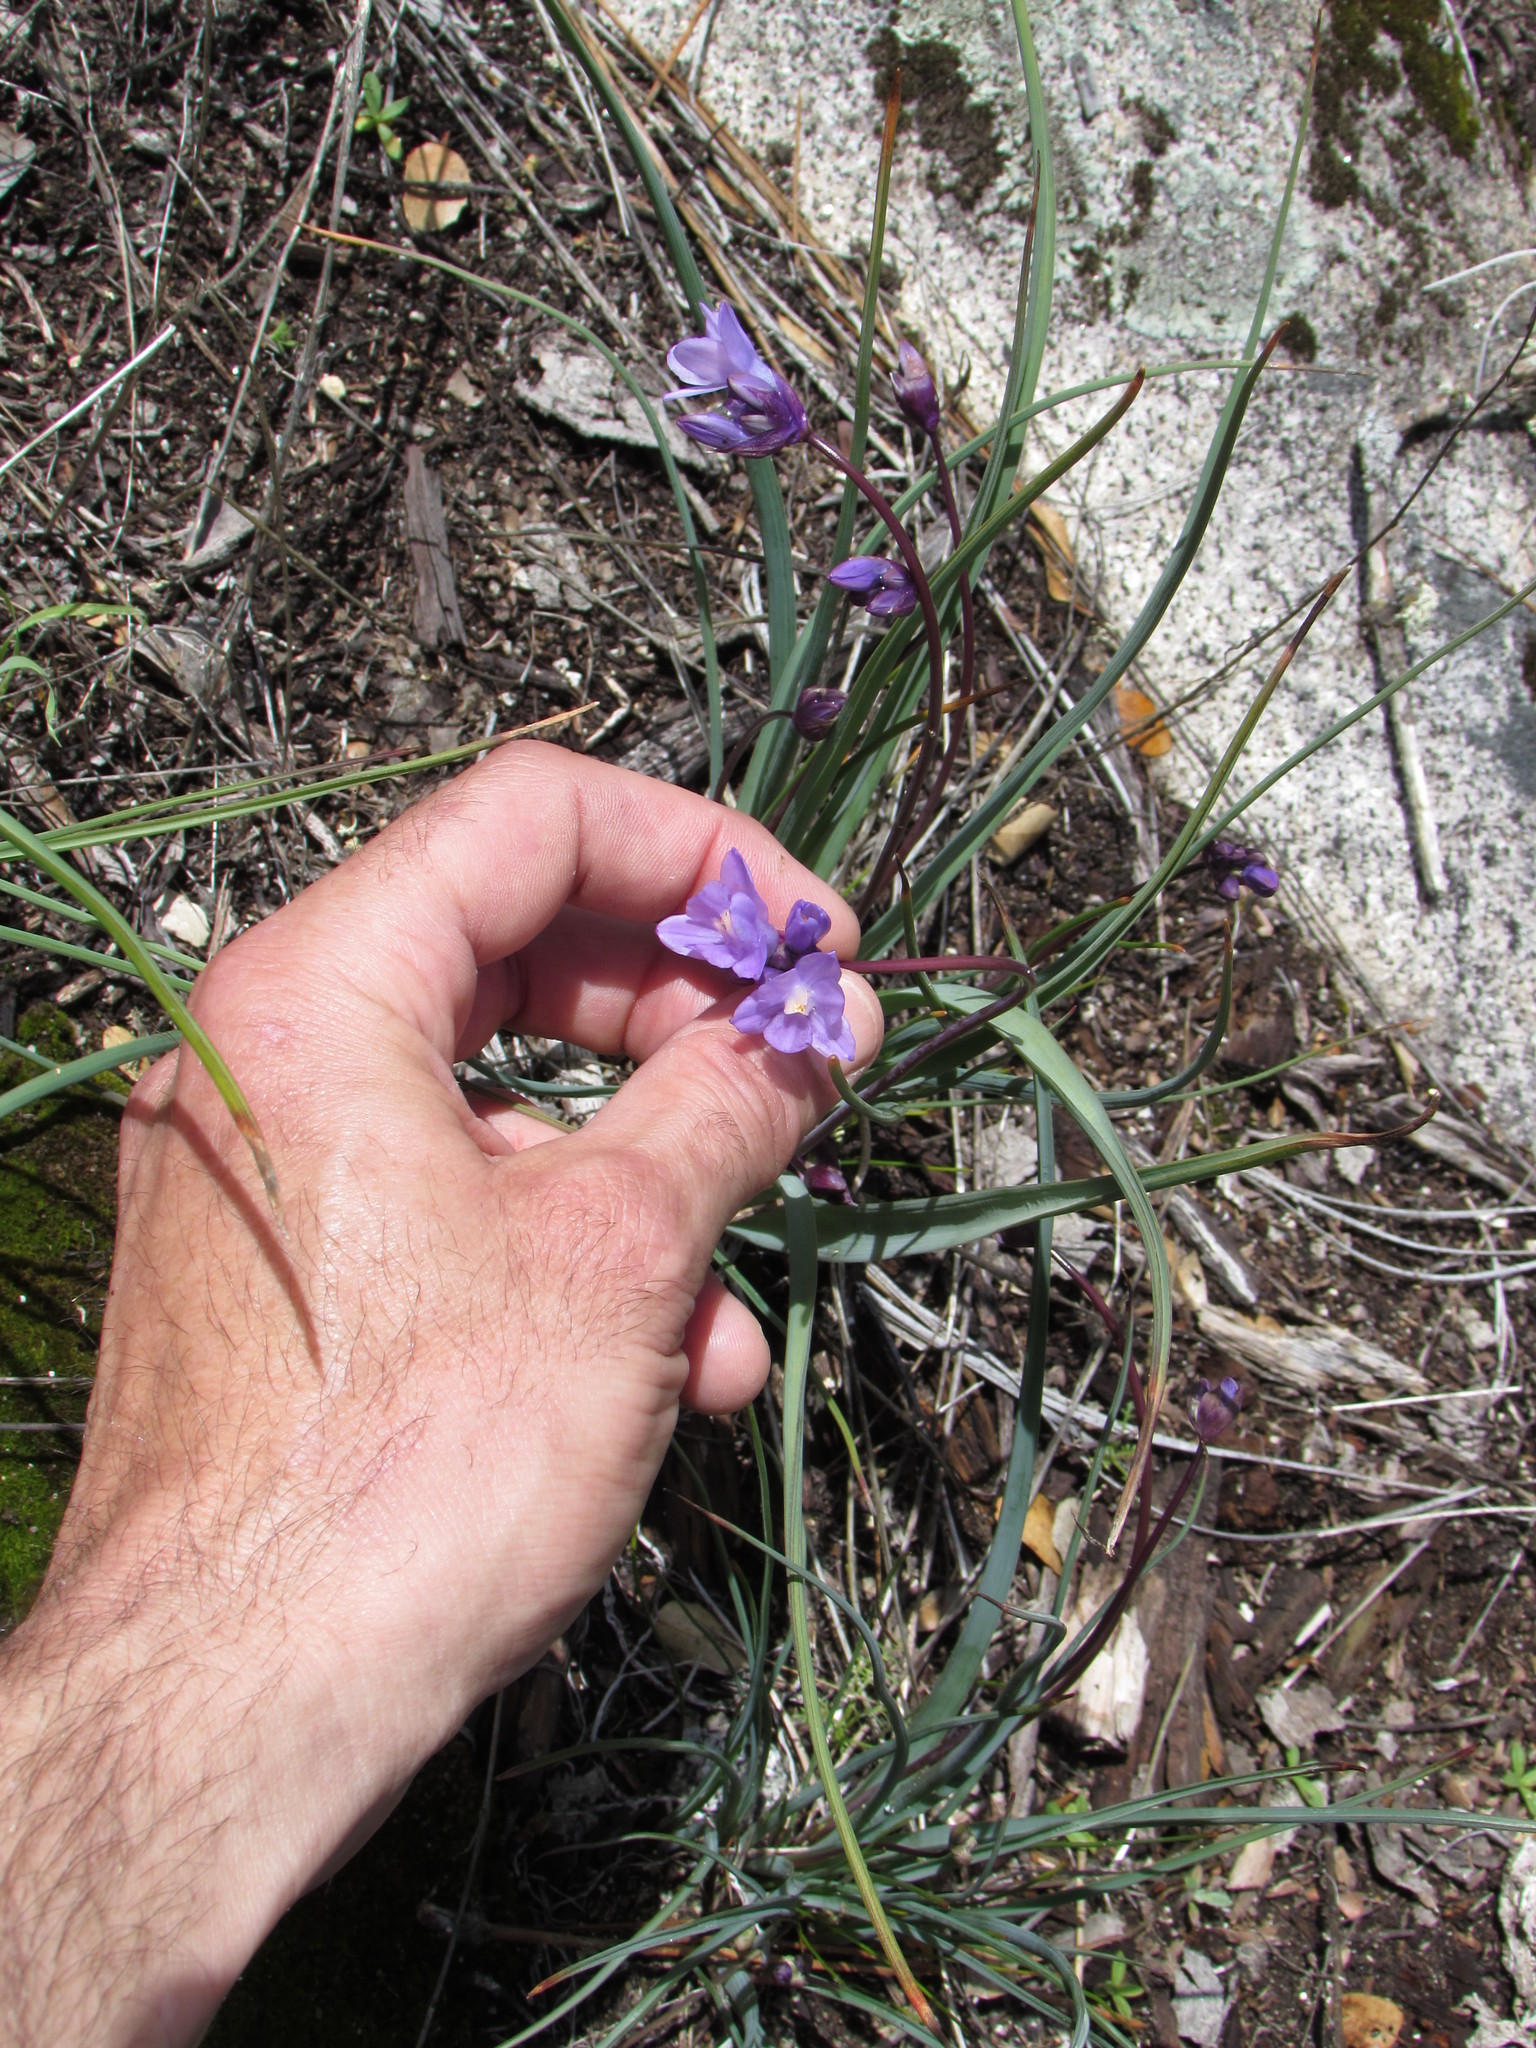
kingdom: Plantae
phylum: Tracheophyta
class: Liliopsida
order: Asparagales
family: Asparagaceae
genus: Dipterostemon
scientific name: Dipterostemon capitatus
